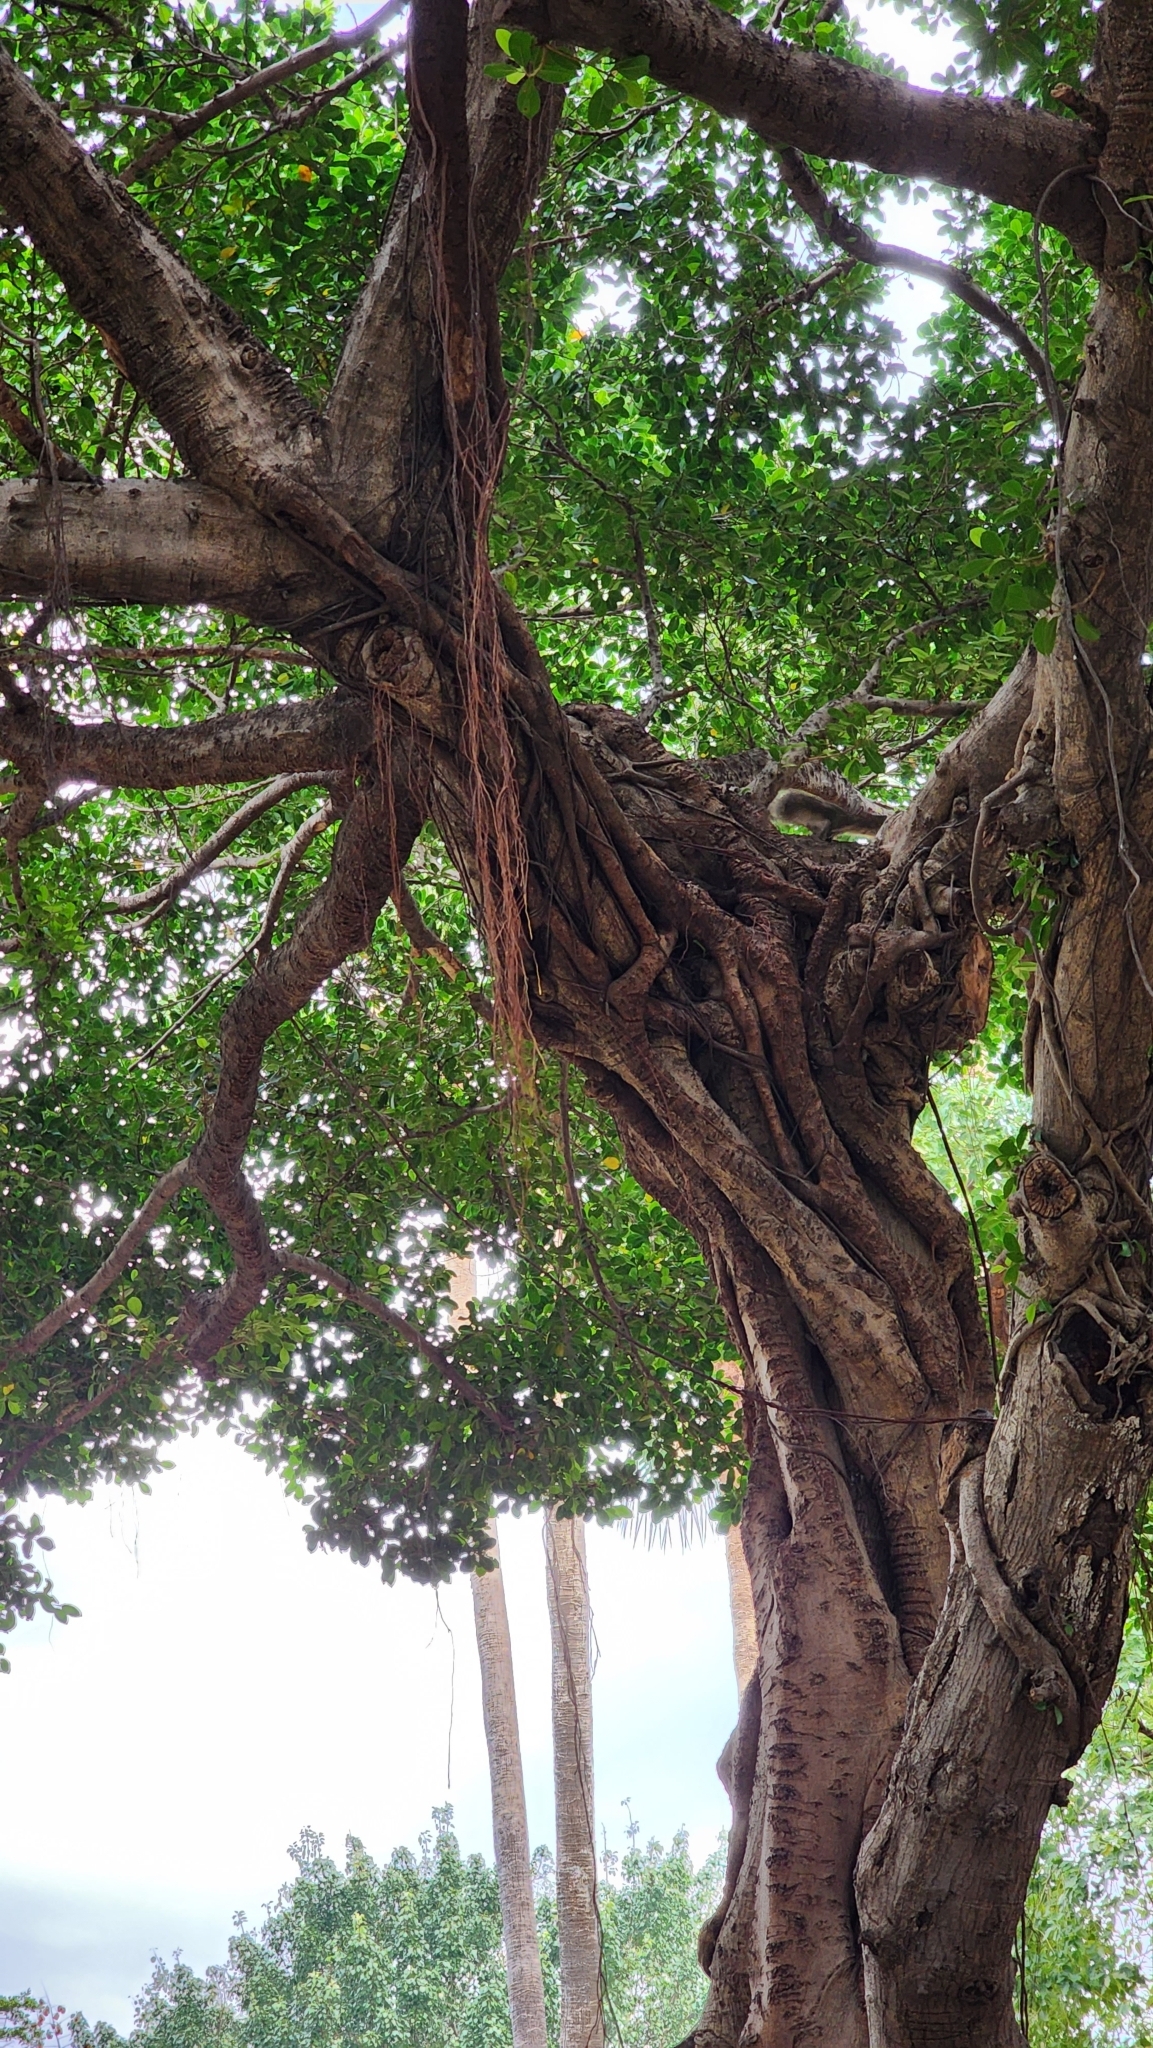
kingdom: Plantae
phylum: Tracheophyta
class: Magnoliopsida
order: Rosales
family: Moraceae
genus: Ficus
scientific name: Ficus microcarpa
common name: Chinese banyan
